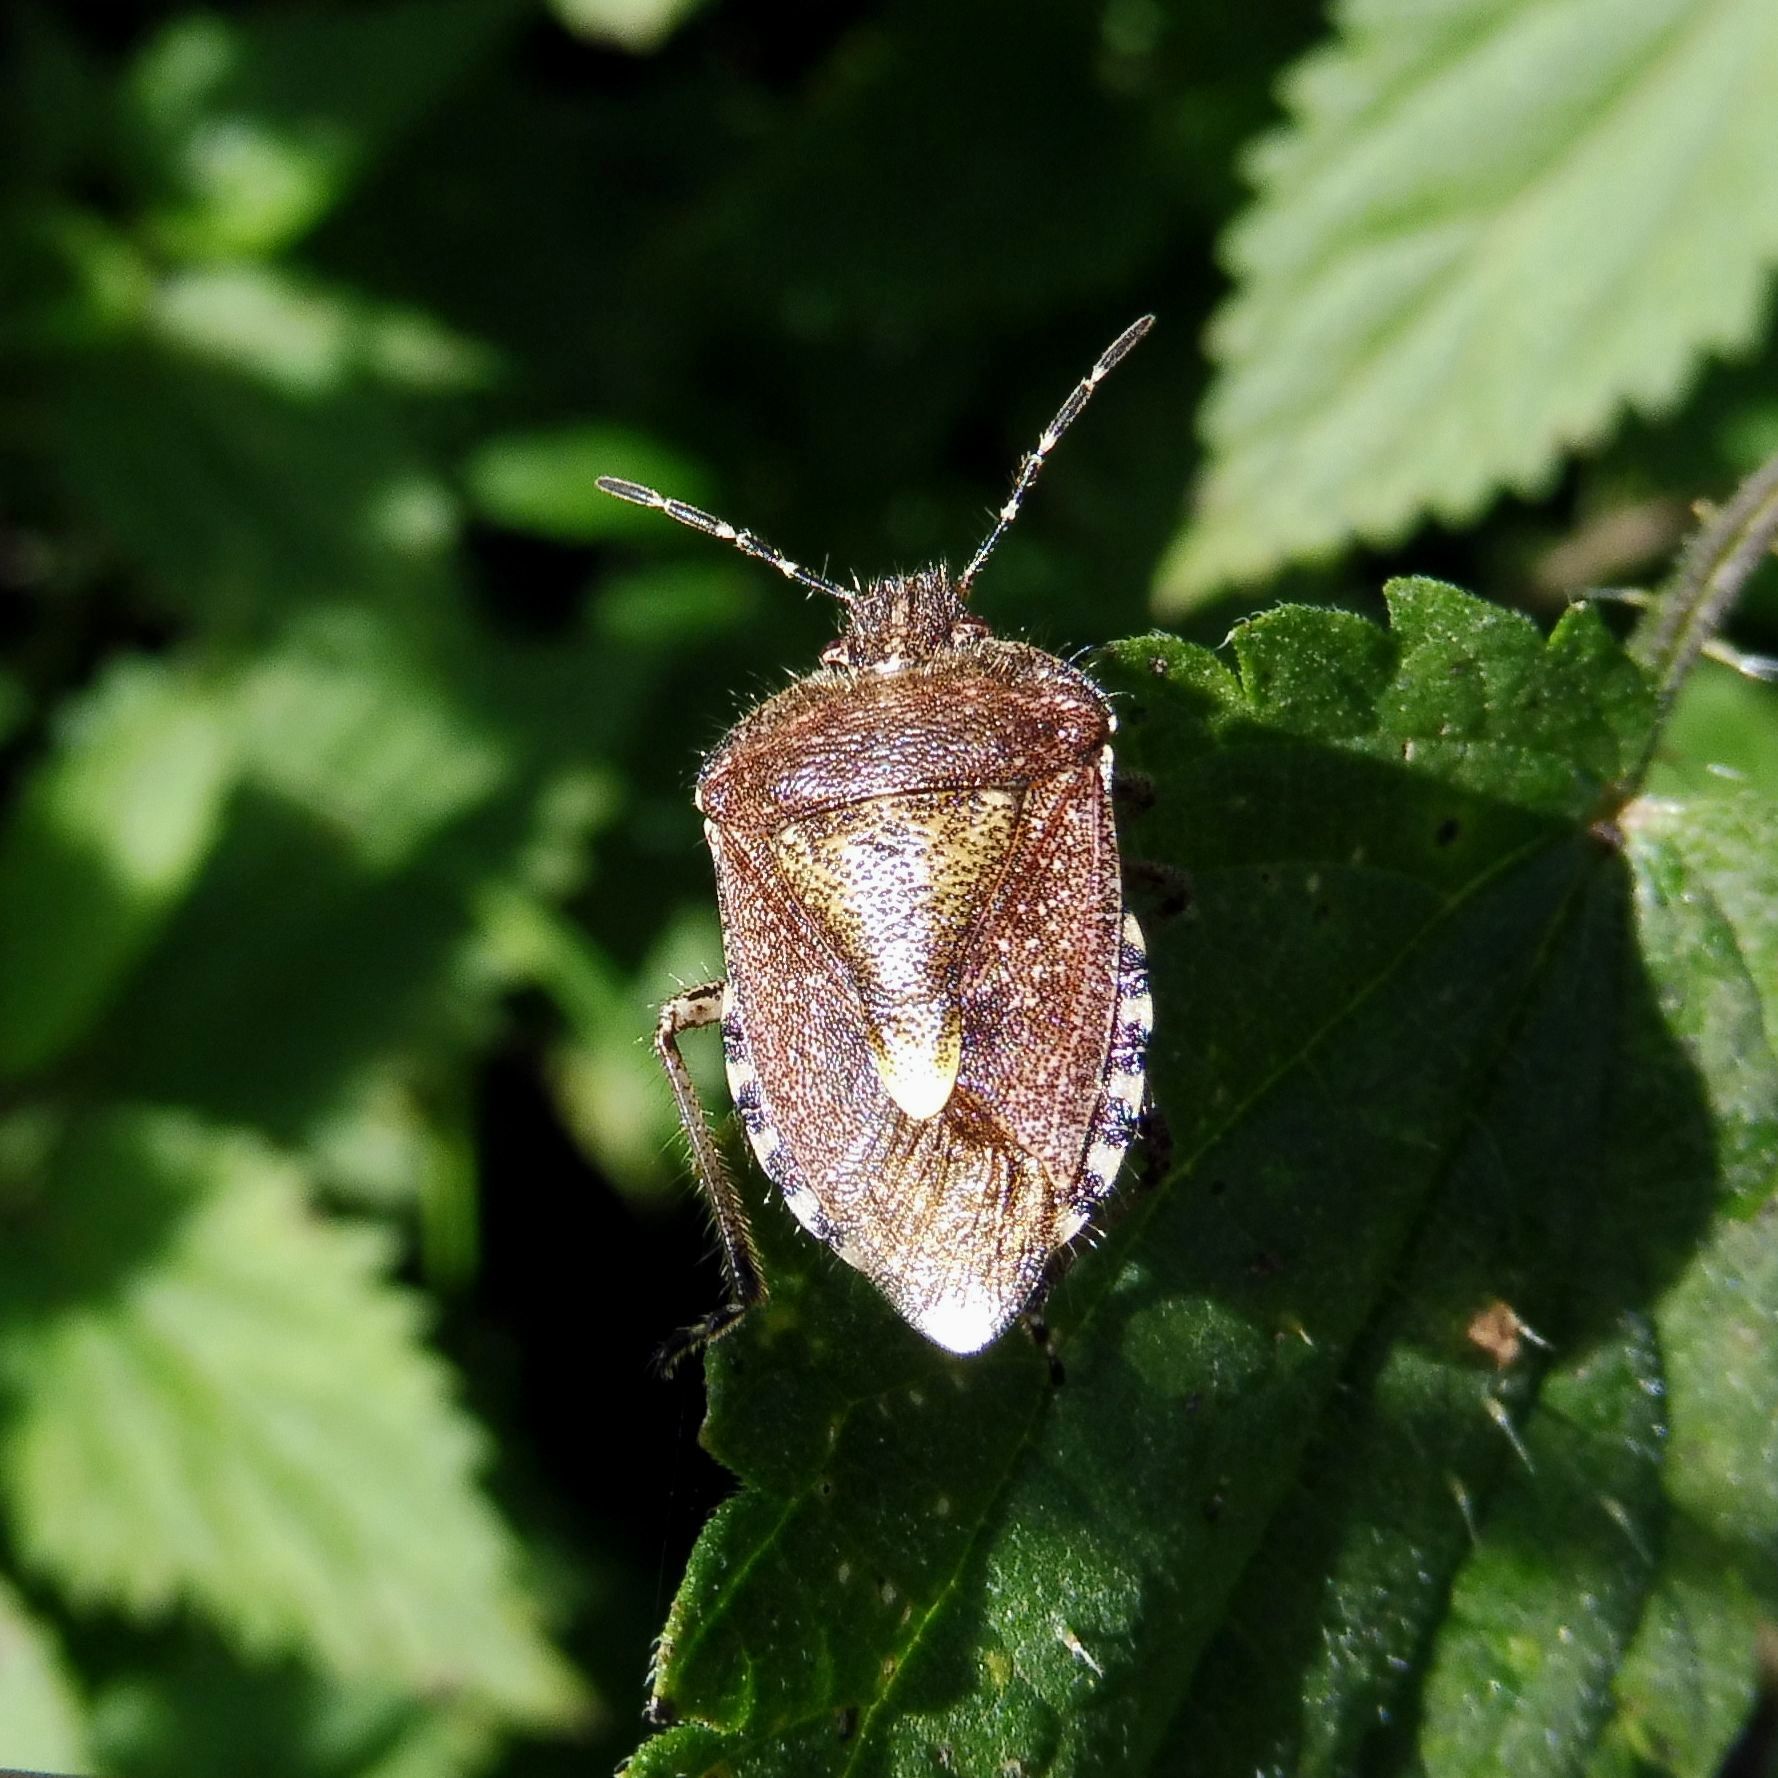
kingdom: Animalia
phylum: Arthropoda
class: Insecta
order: Hemiptera
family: Pentatomidae
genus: Dolycoris
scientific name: Dolycoris baccarum
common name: Sloe bug
